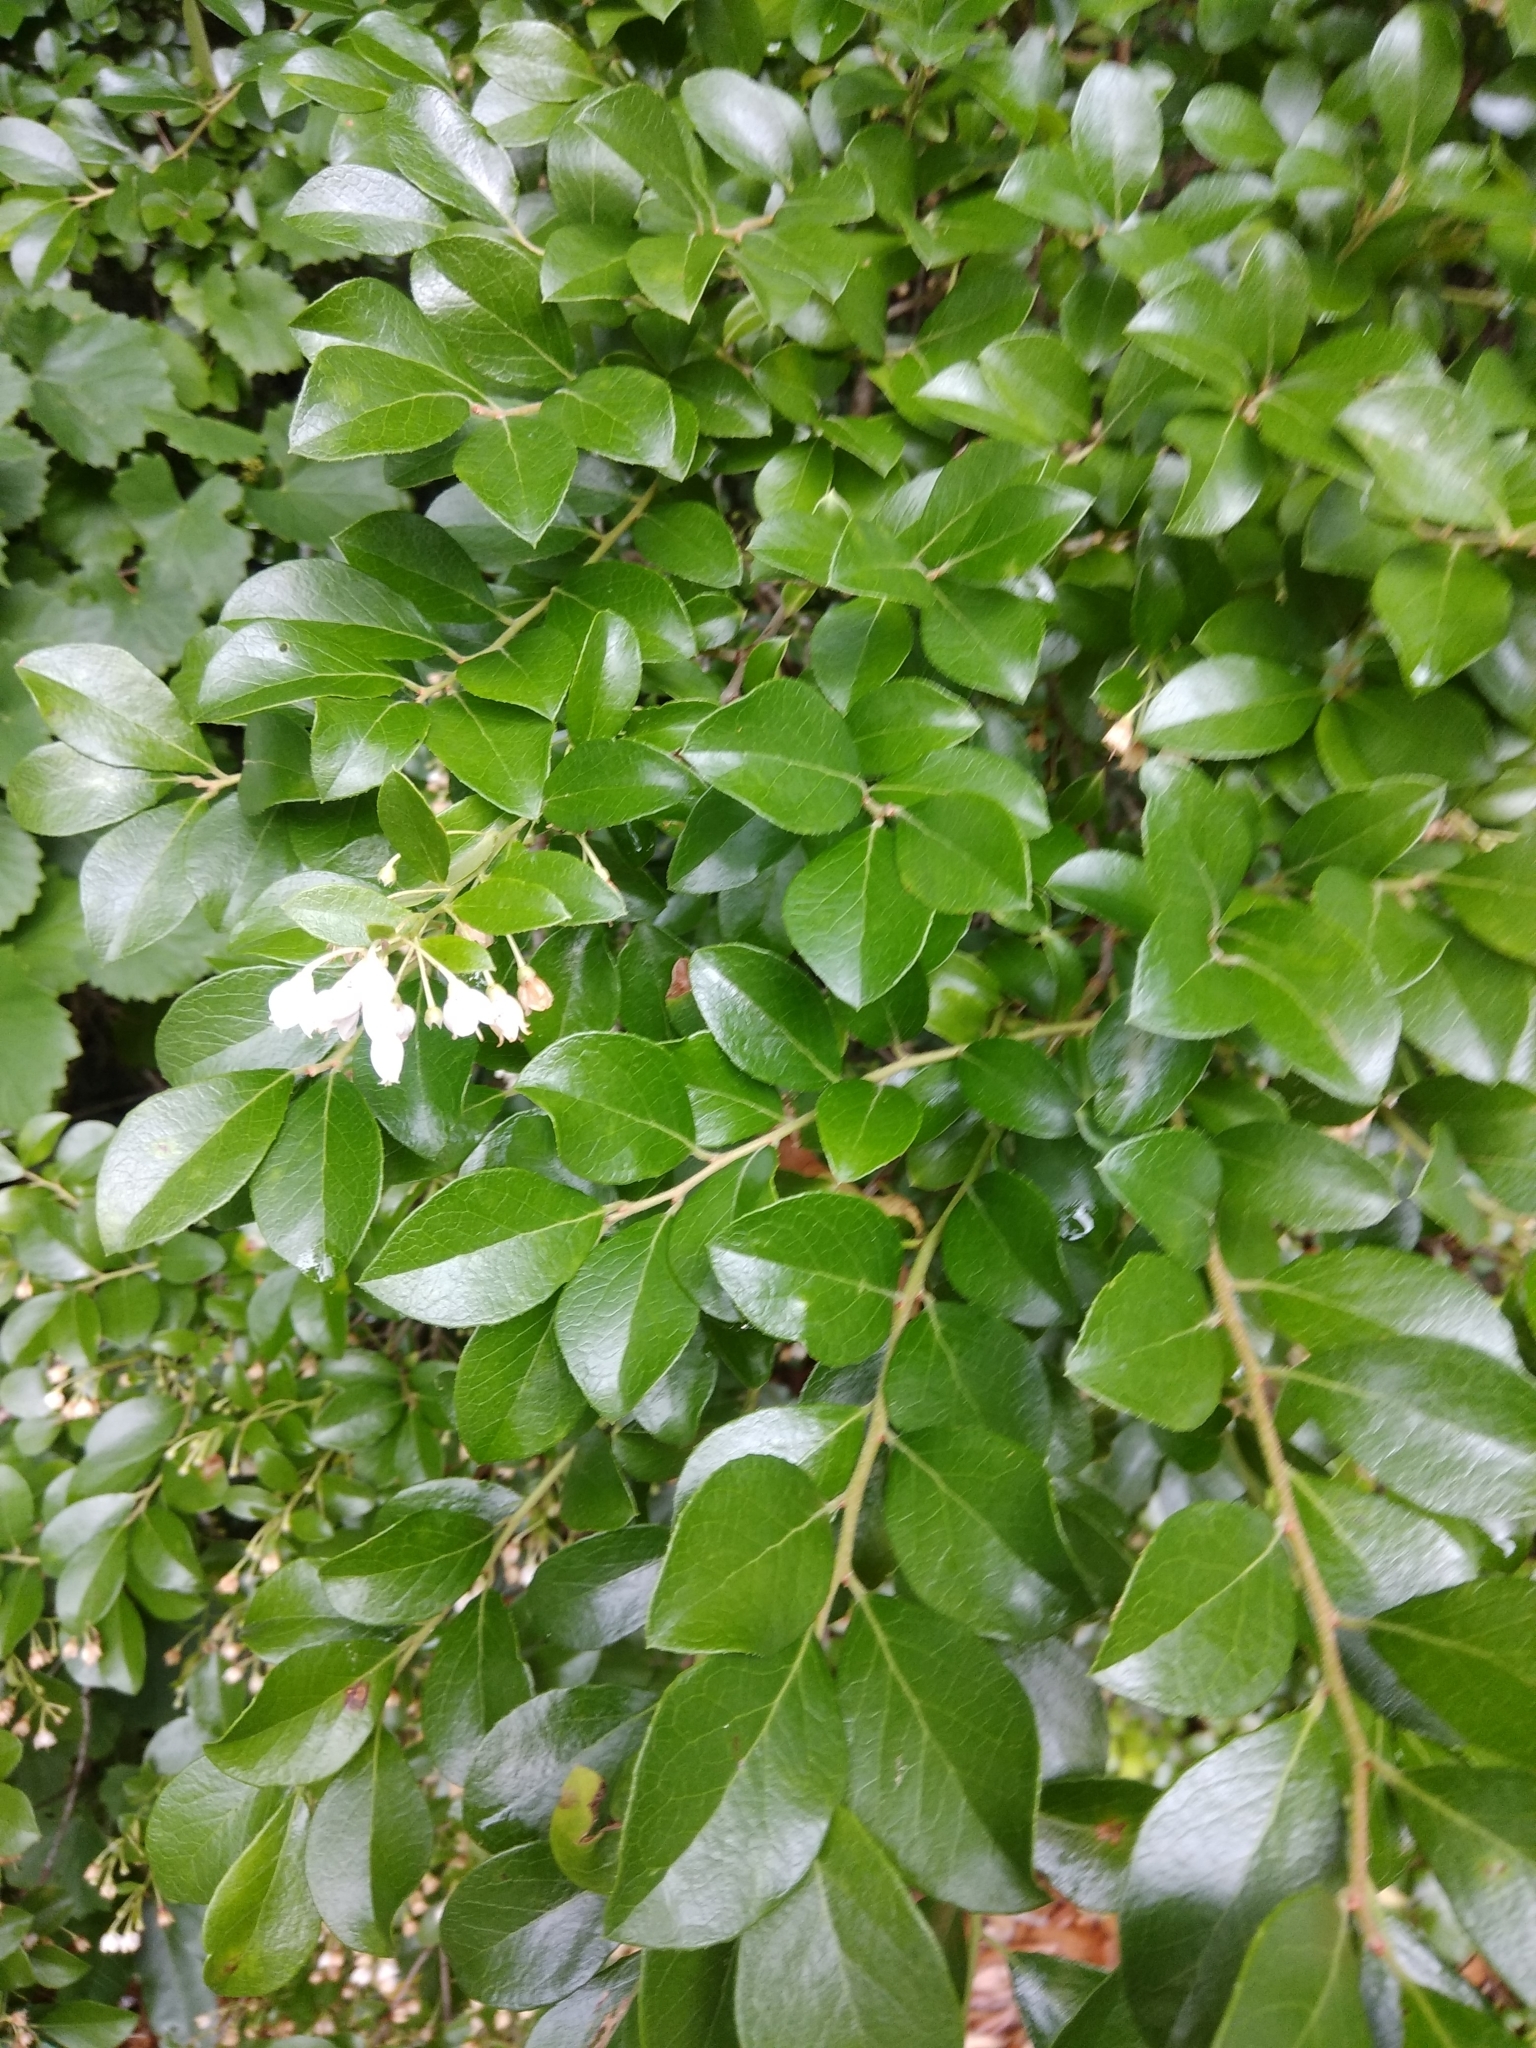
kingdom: Plantae
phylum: Tracheophyta
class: Magnoliopsida
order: Ericales
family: Ericaceae
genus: Vaccinium
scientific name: Vaccinium arboreum
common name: Farkleberry
